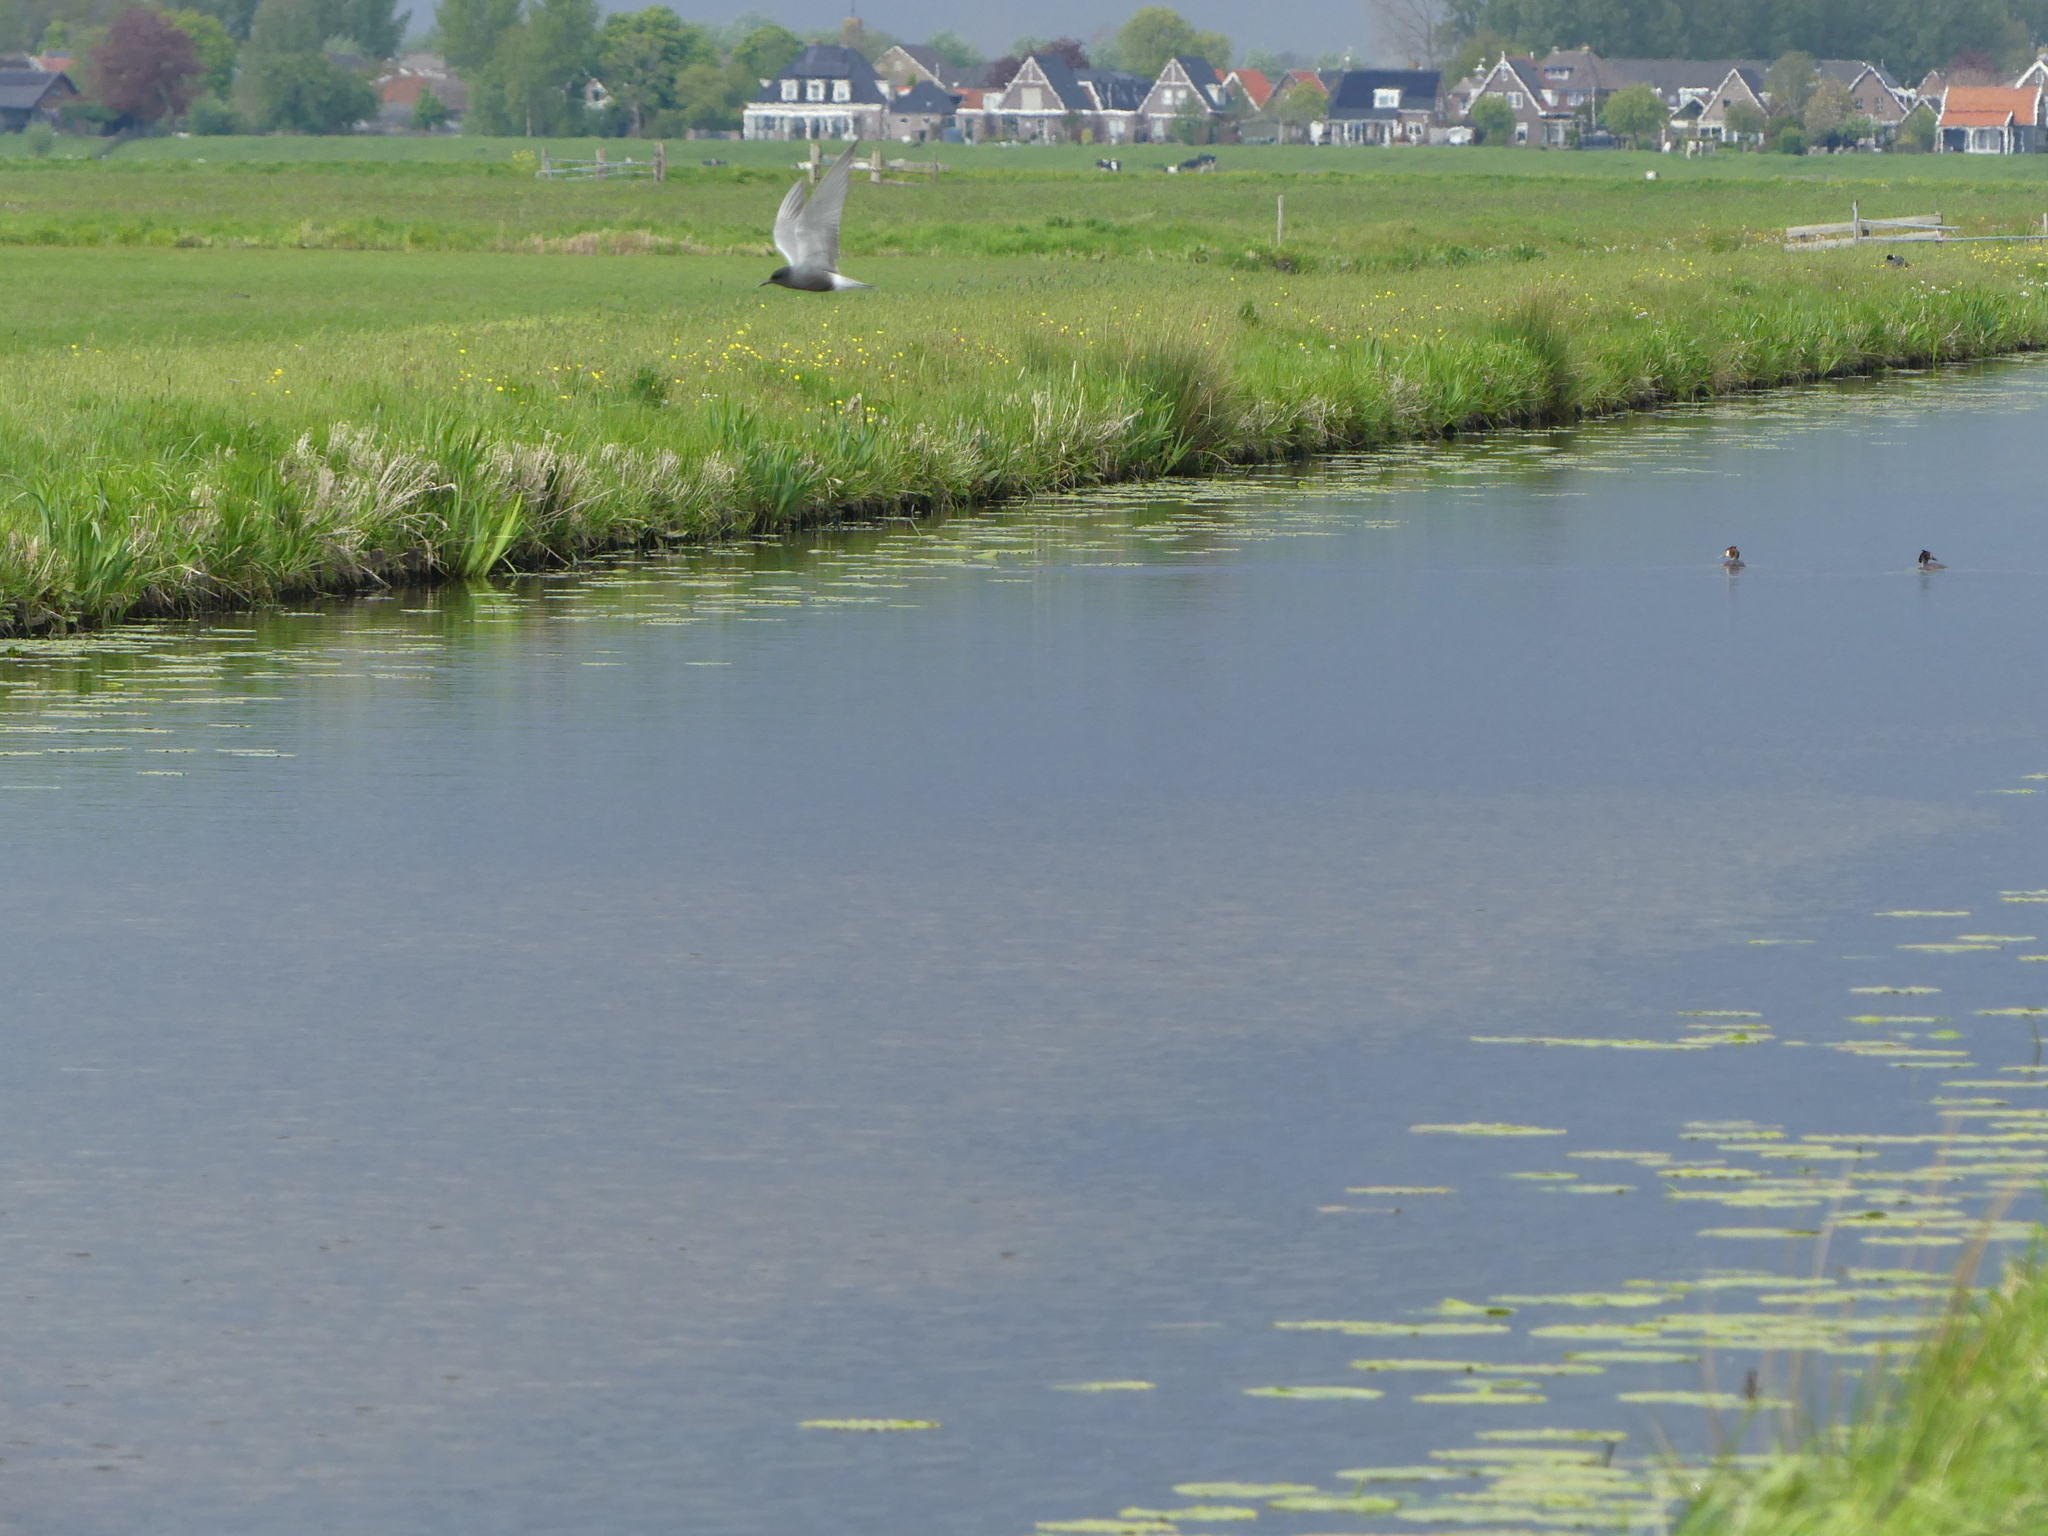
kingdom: Animalia
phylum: Chordata
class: Aves
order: Charadriiformes
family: Laridae
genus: Chlidonias
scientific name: Chlidonias niger
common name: Black tern
